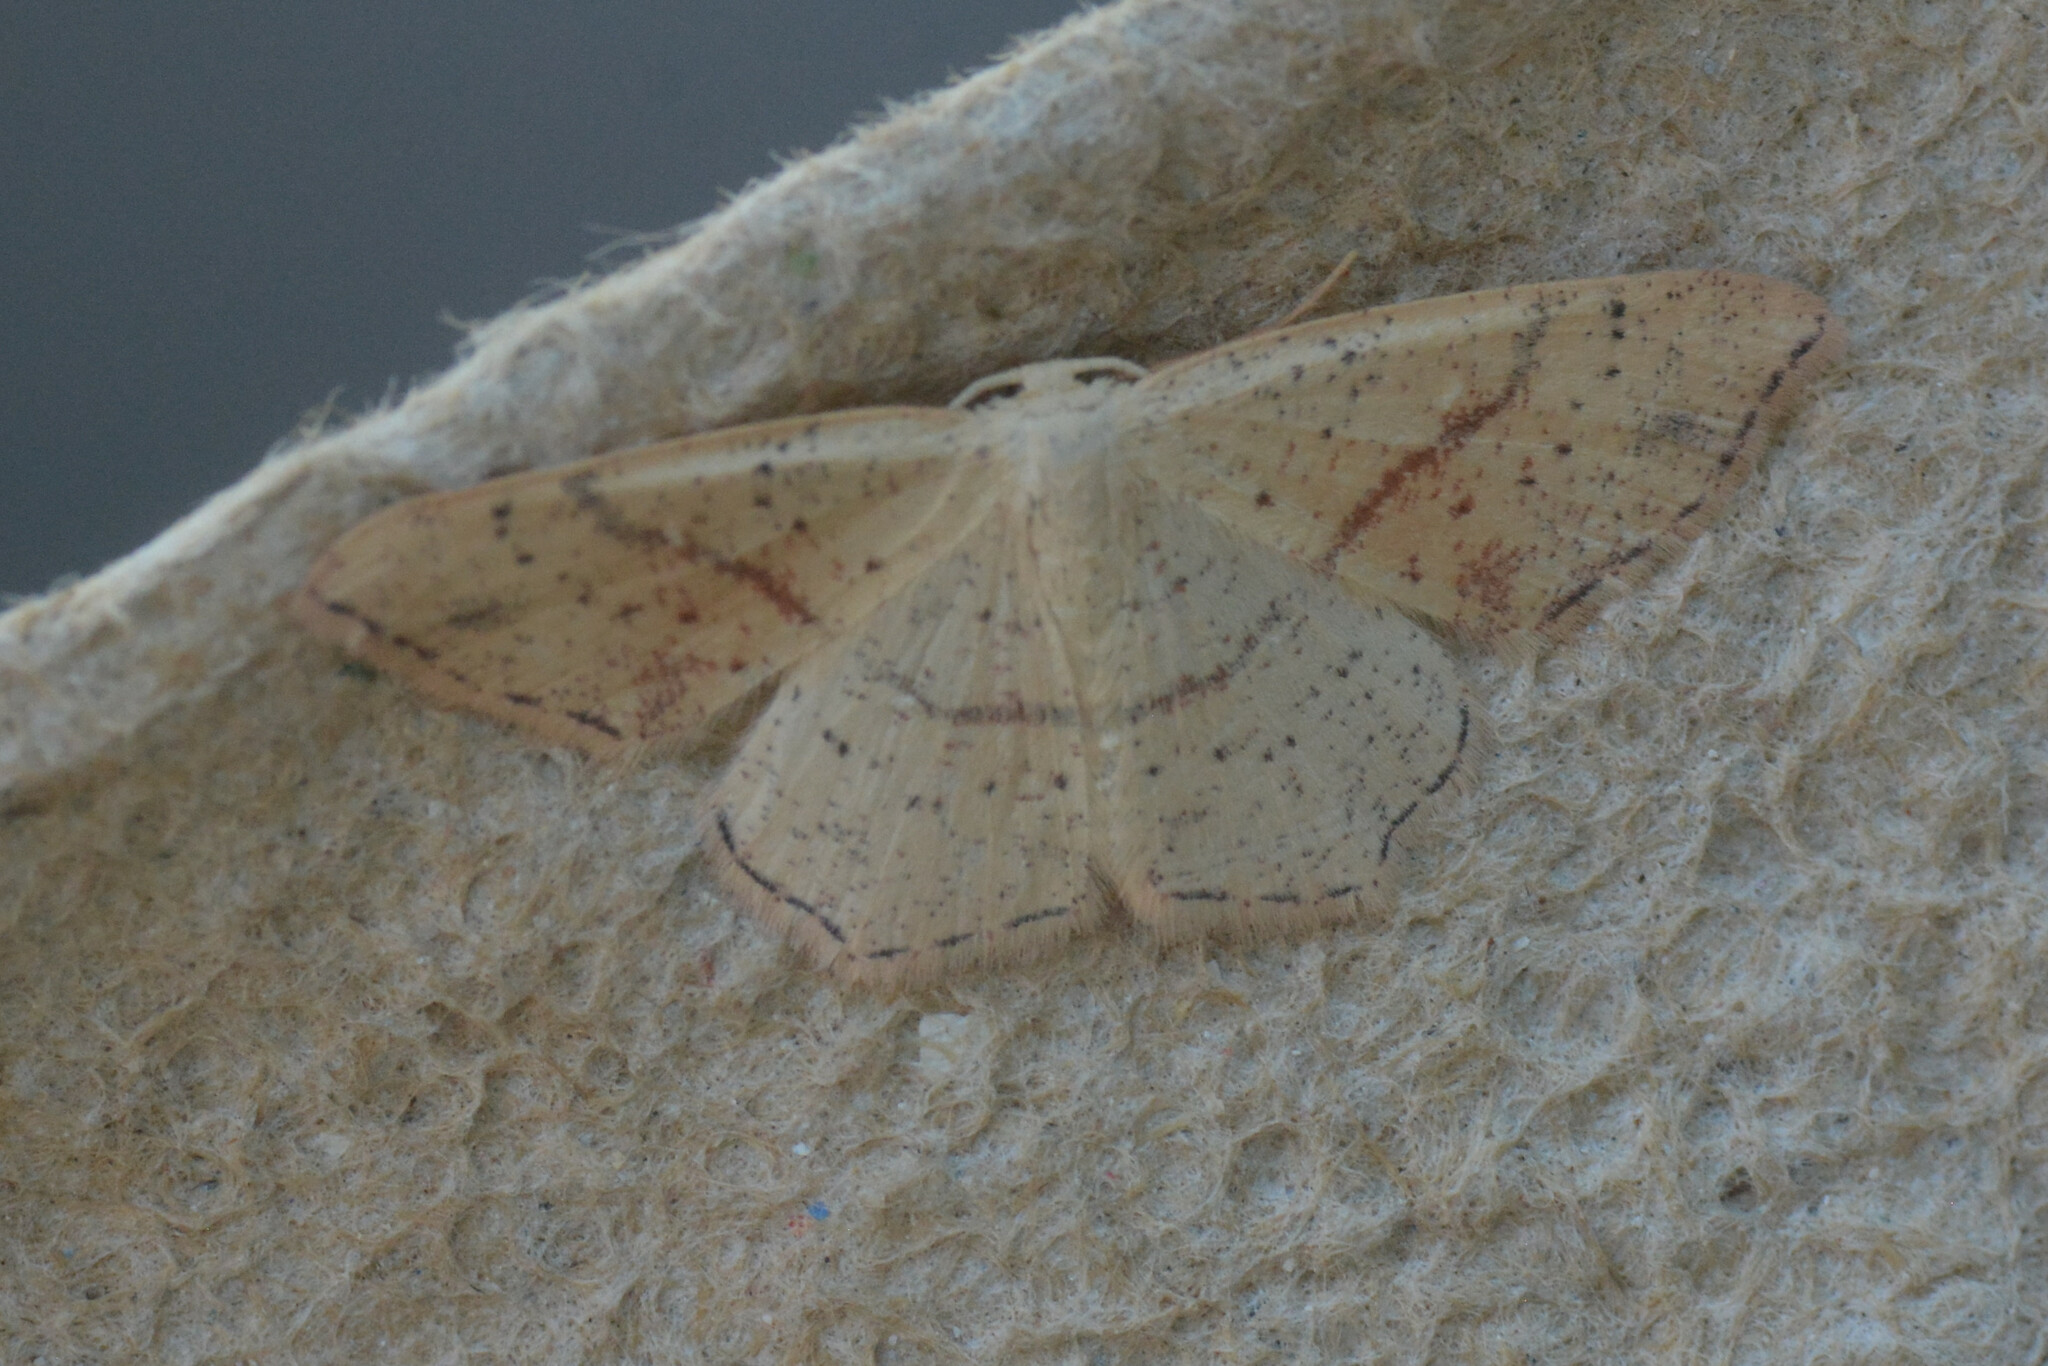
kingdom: Animalia
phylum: Arthropoda
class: Insecta
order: Lepidoptera
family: Geometridae
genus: Cyclophora
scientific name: Cyclophora punctaria
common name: Maiden's blush
